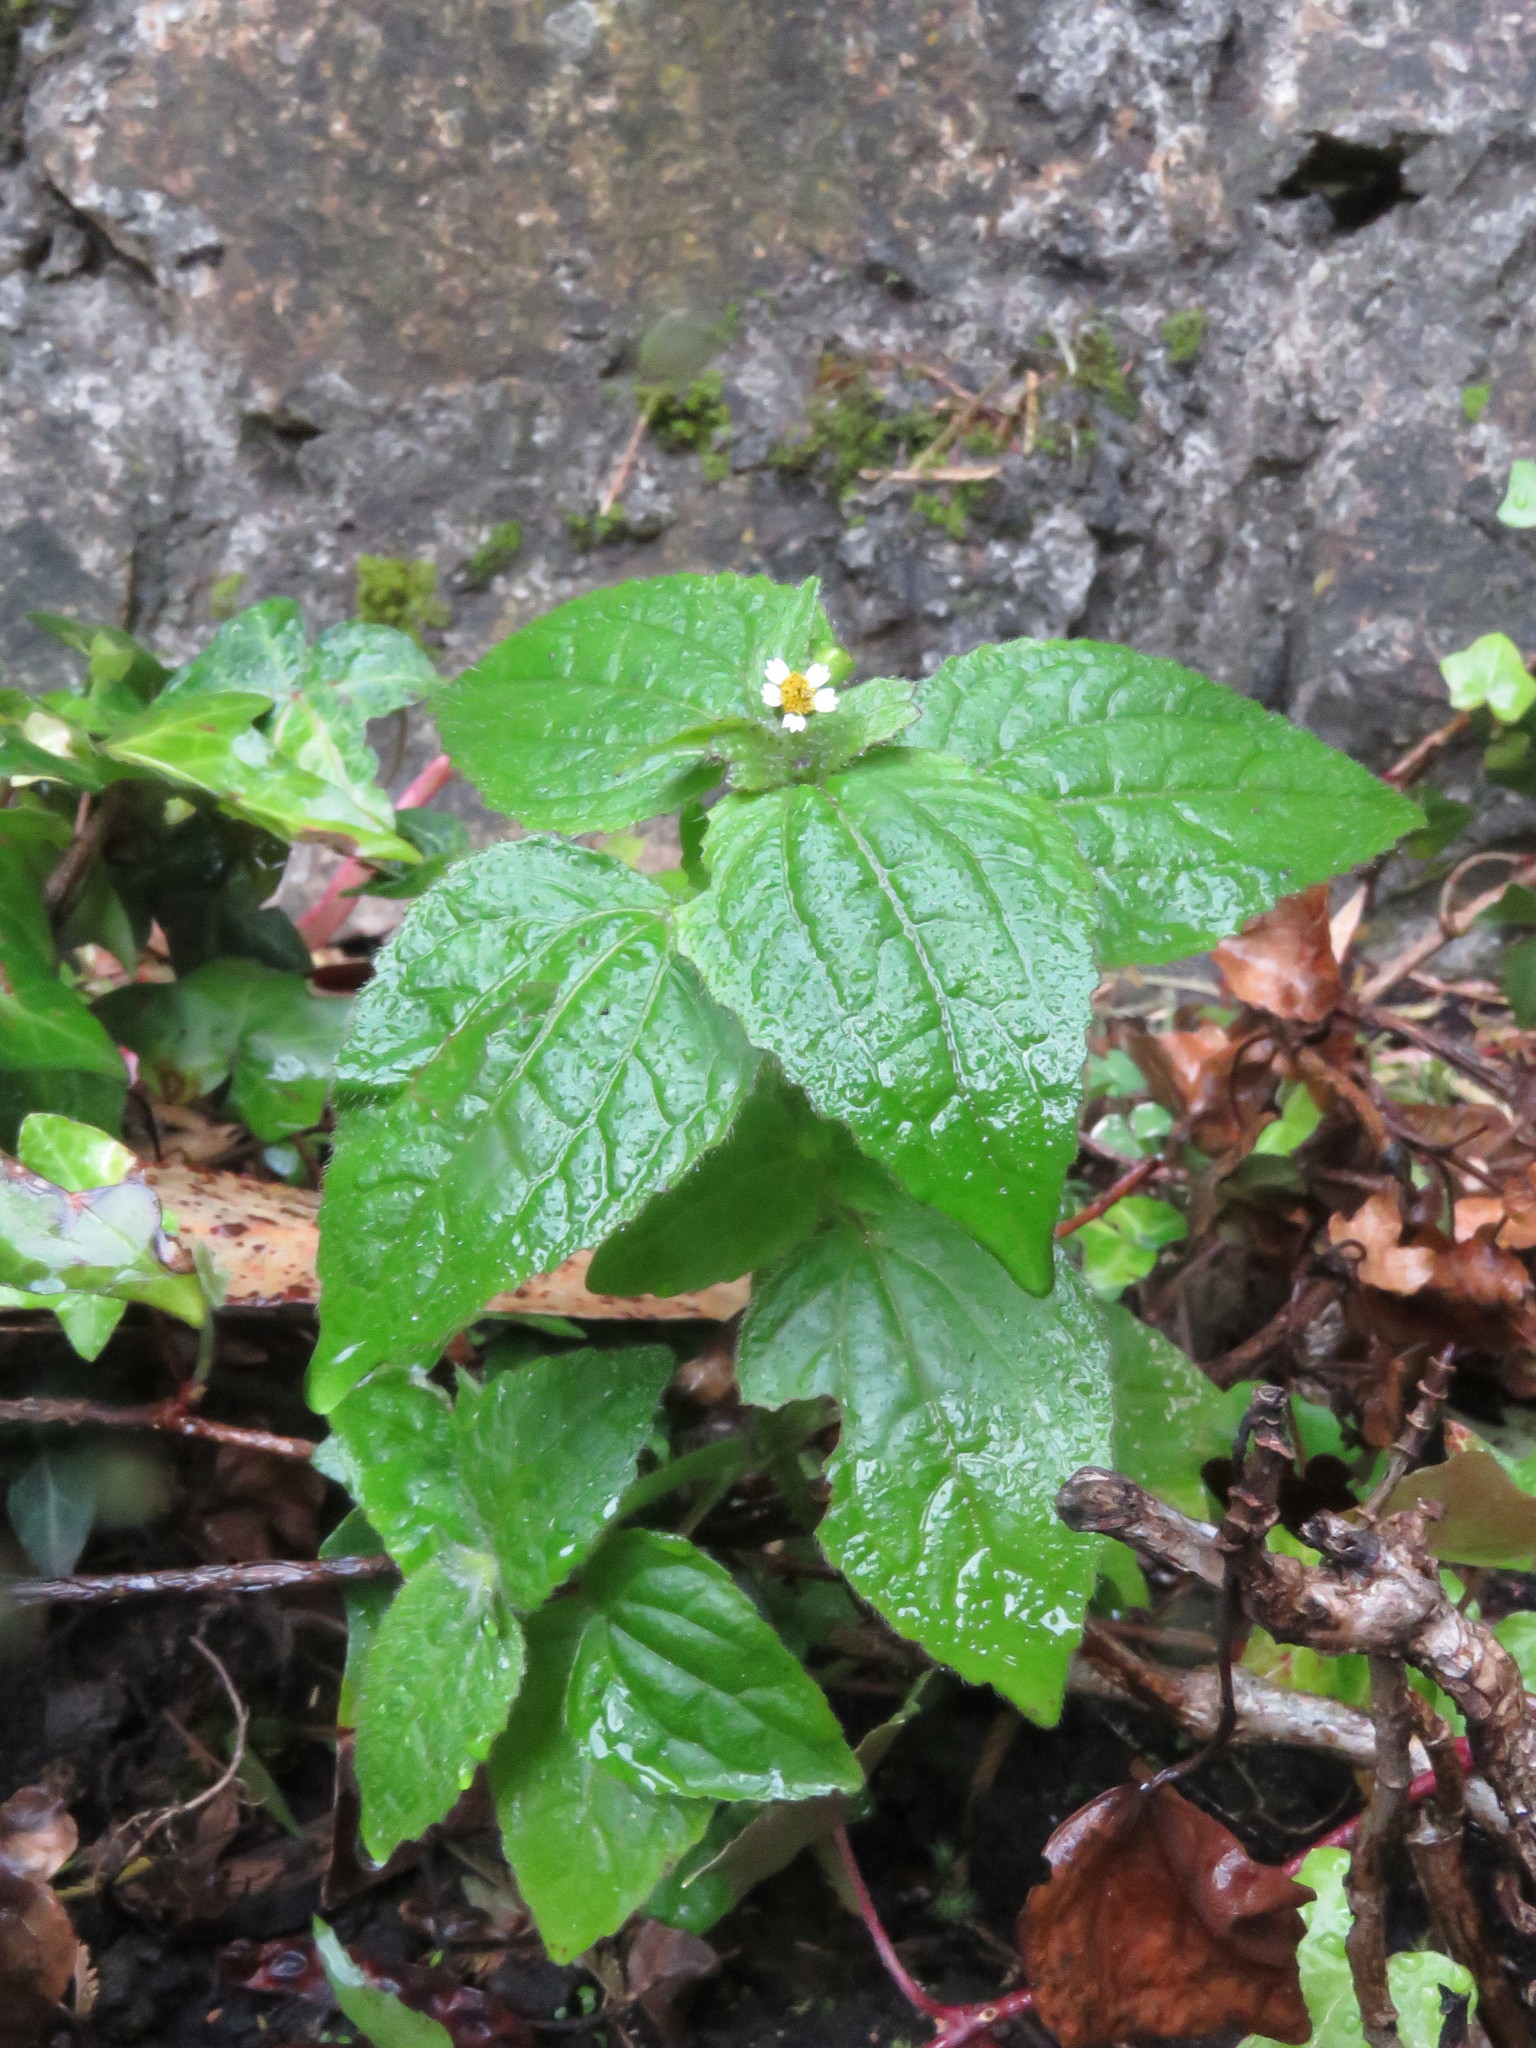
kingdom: Plantae
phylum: Tracheophyta
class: Magnoliopsida
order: Asterales
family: Asteraceae
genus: Galinsoga
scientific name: Galinsoga quadriradiata
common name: Shaggy soldier
